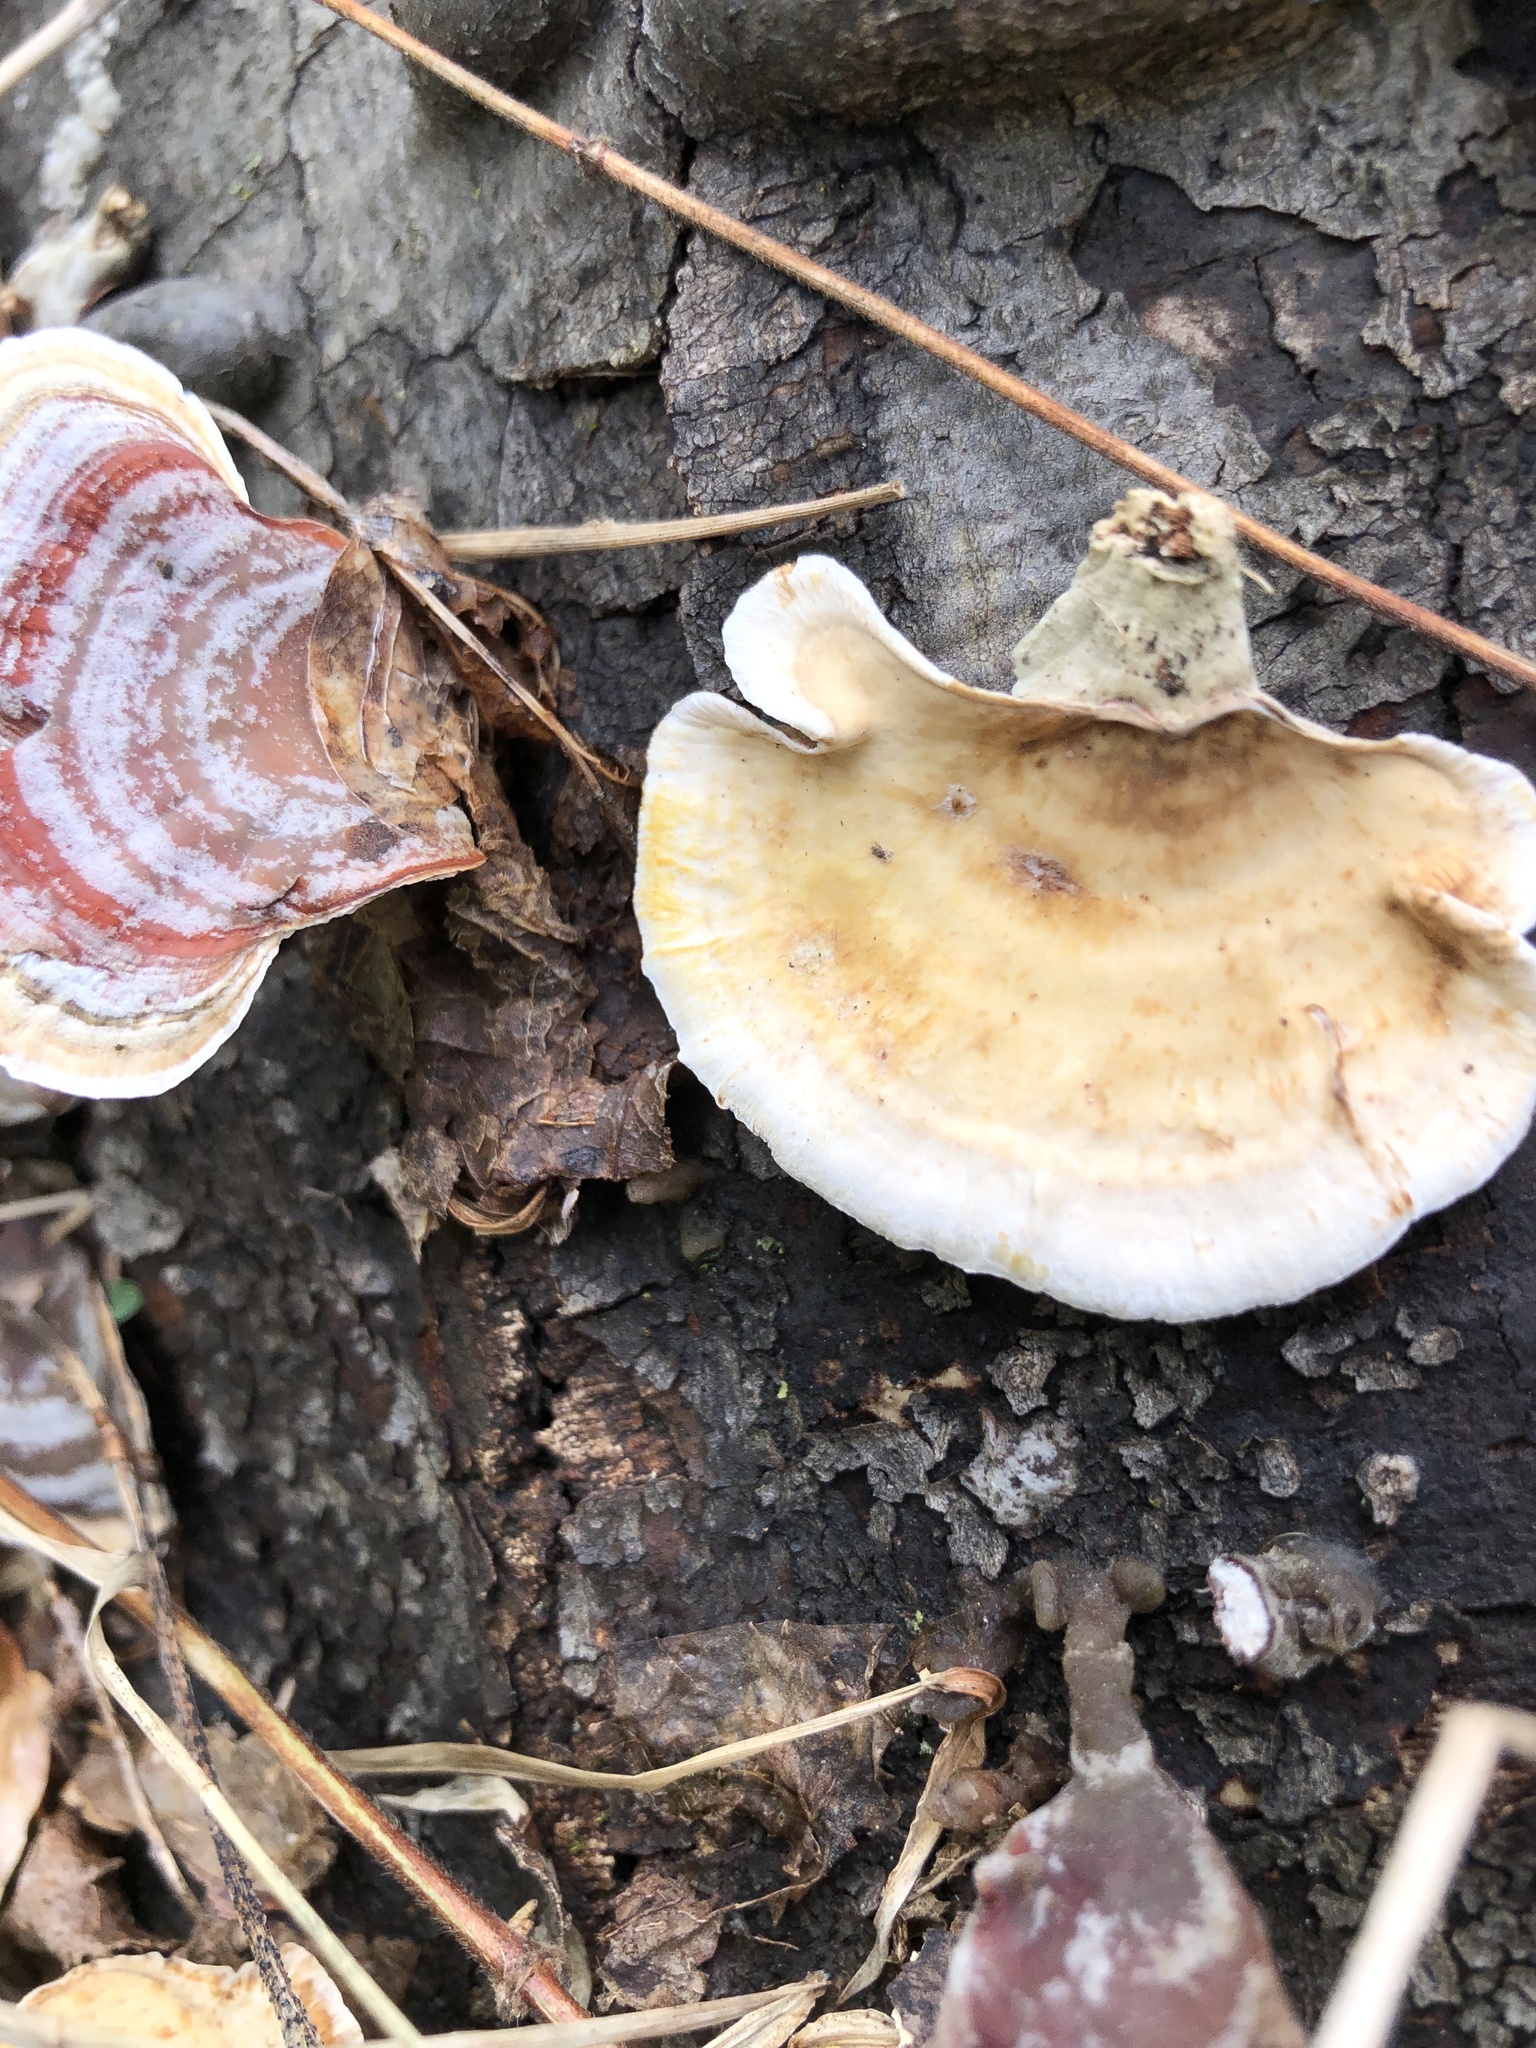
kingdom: Fungi
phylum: Basidiomycota
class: Agaricomycetes
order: Russulales
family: Stereaceae
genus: Stereum
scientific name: Stereum ostrea
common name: False turkeytail
